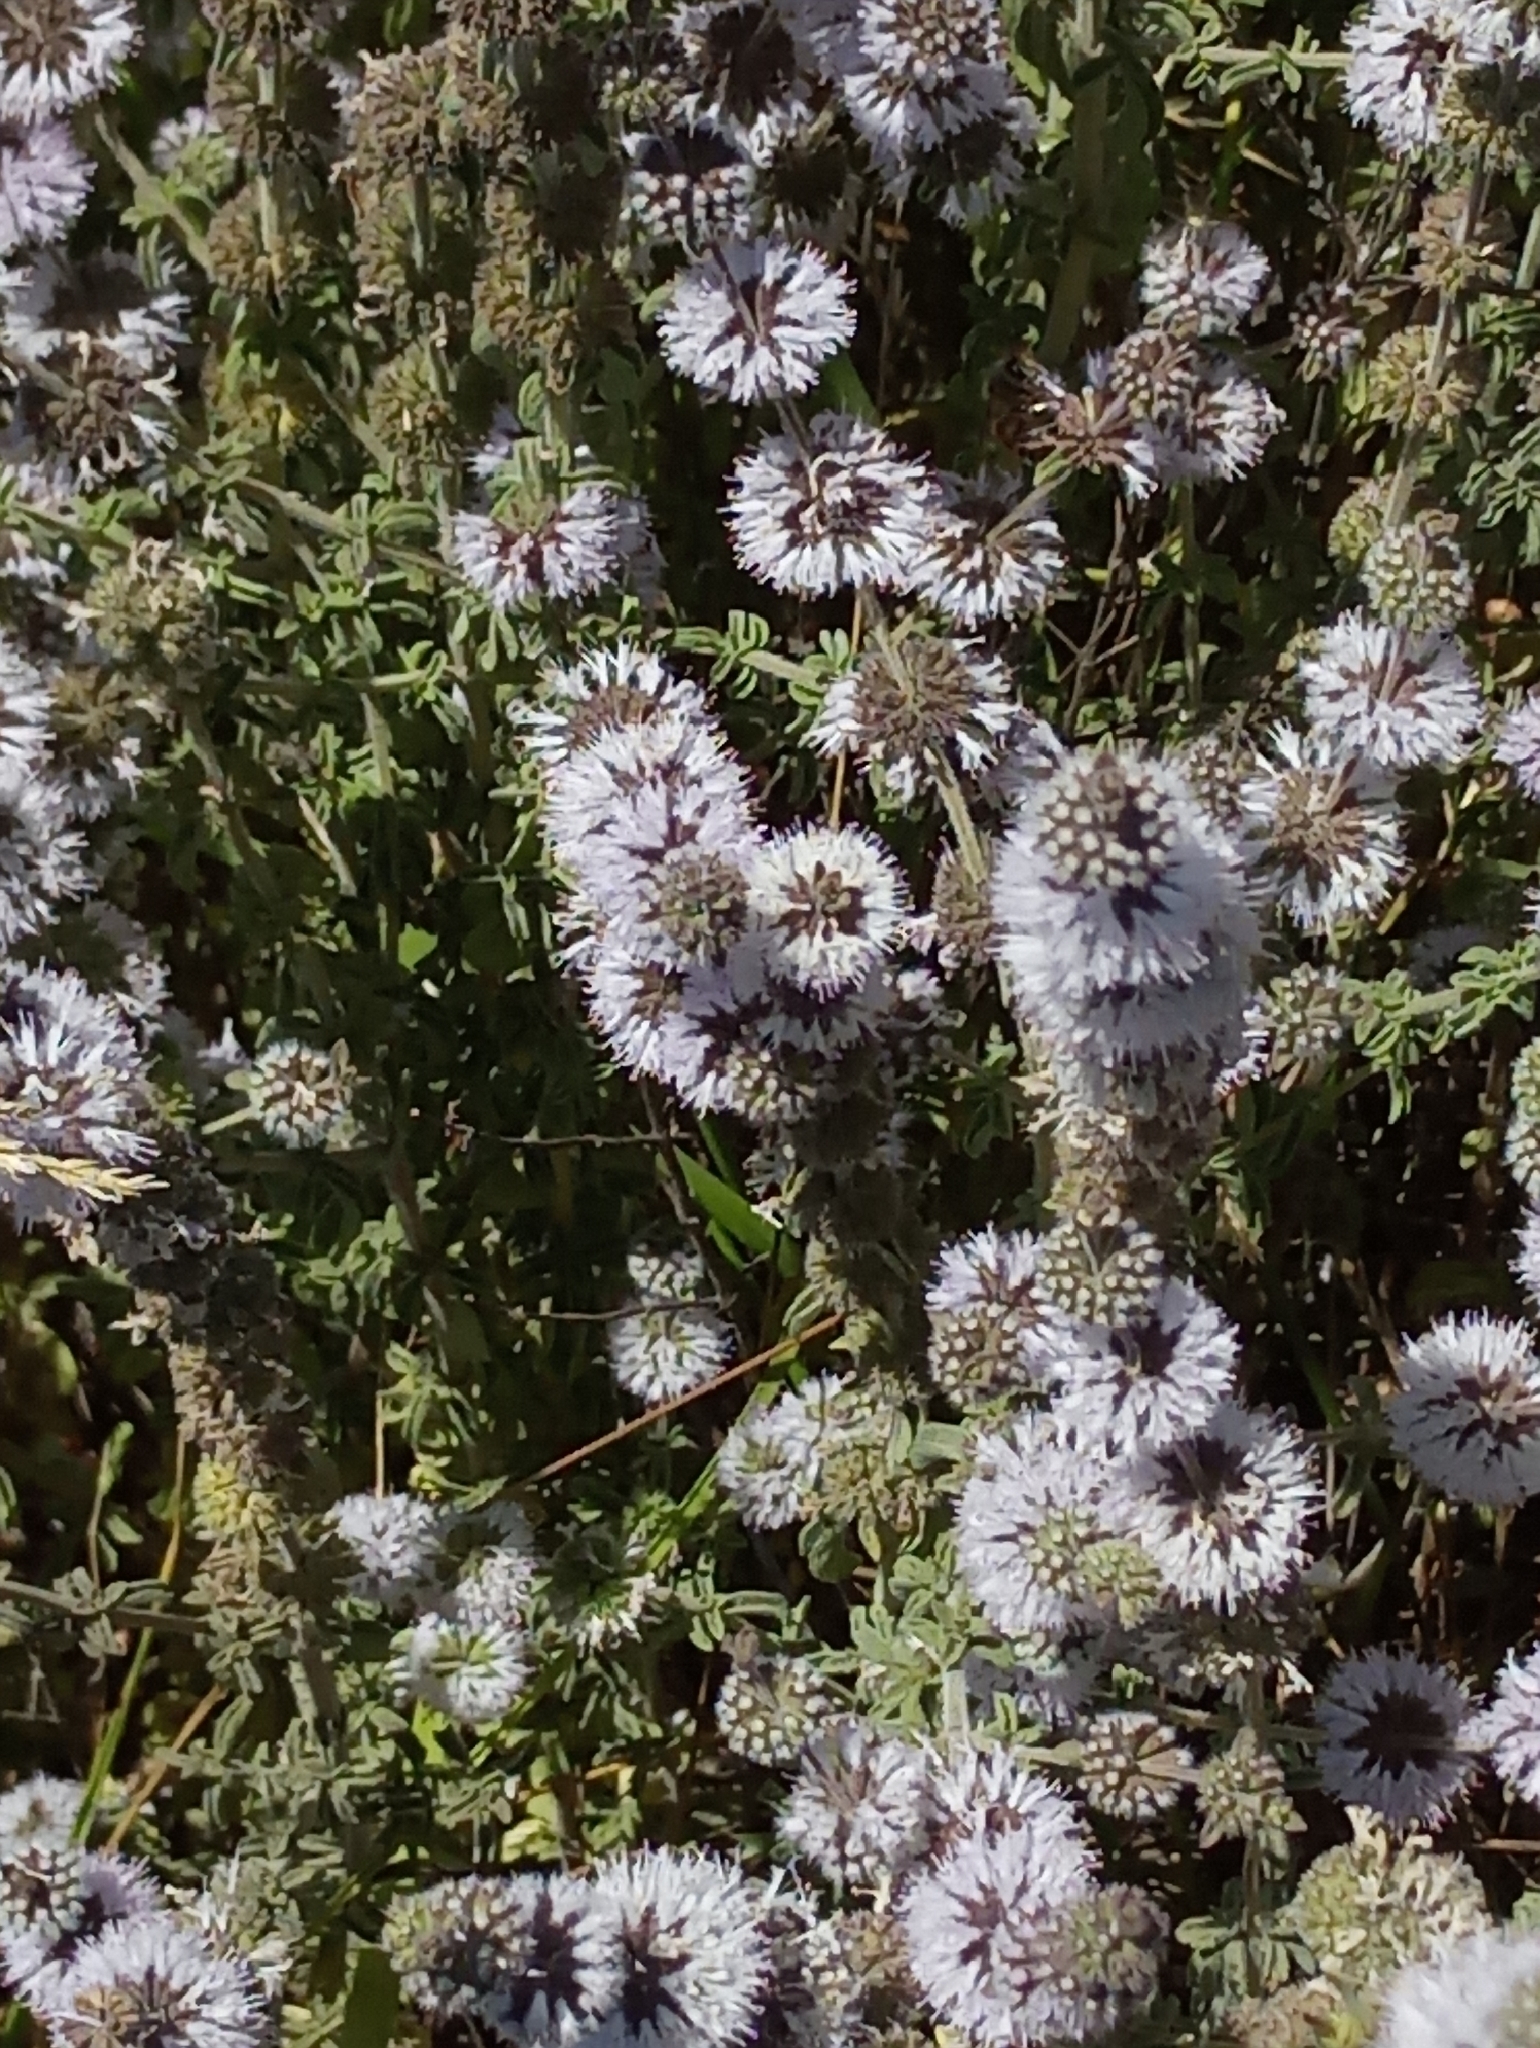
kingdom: Plantae
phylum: Tracheophyta
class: Magnoliopsida
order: Lamiales
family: Lamiaceae
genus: Mentha
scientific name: Mentha pulegium
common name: Pennyroyal
